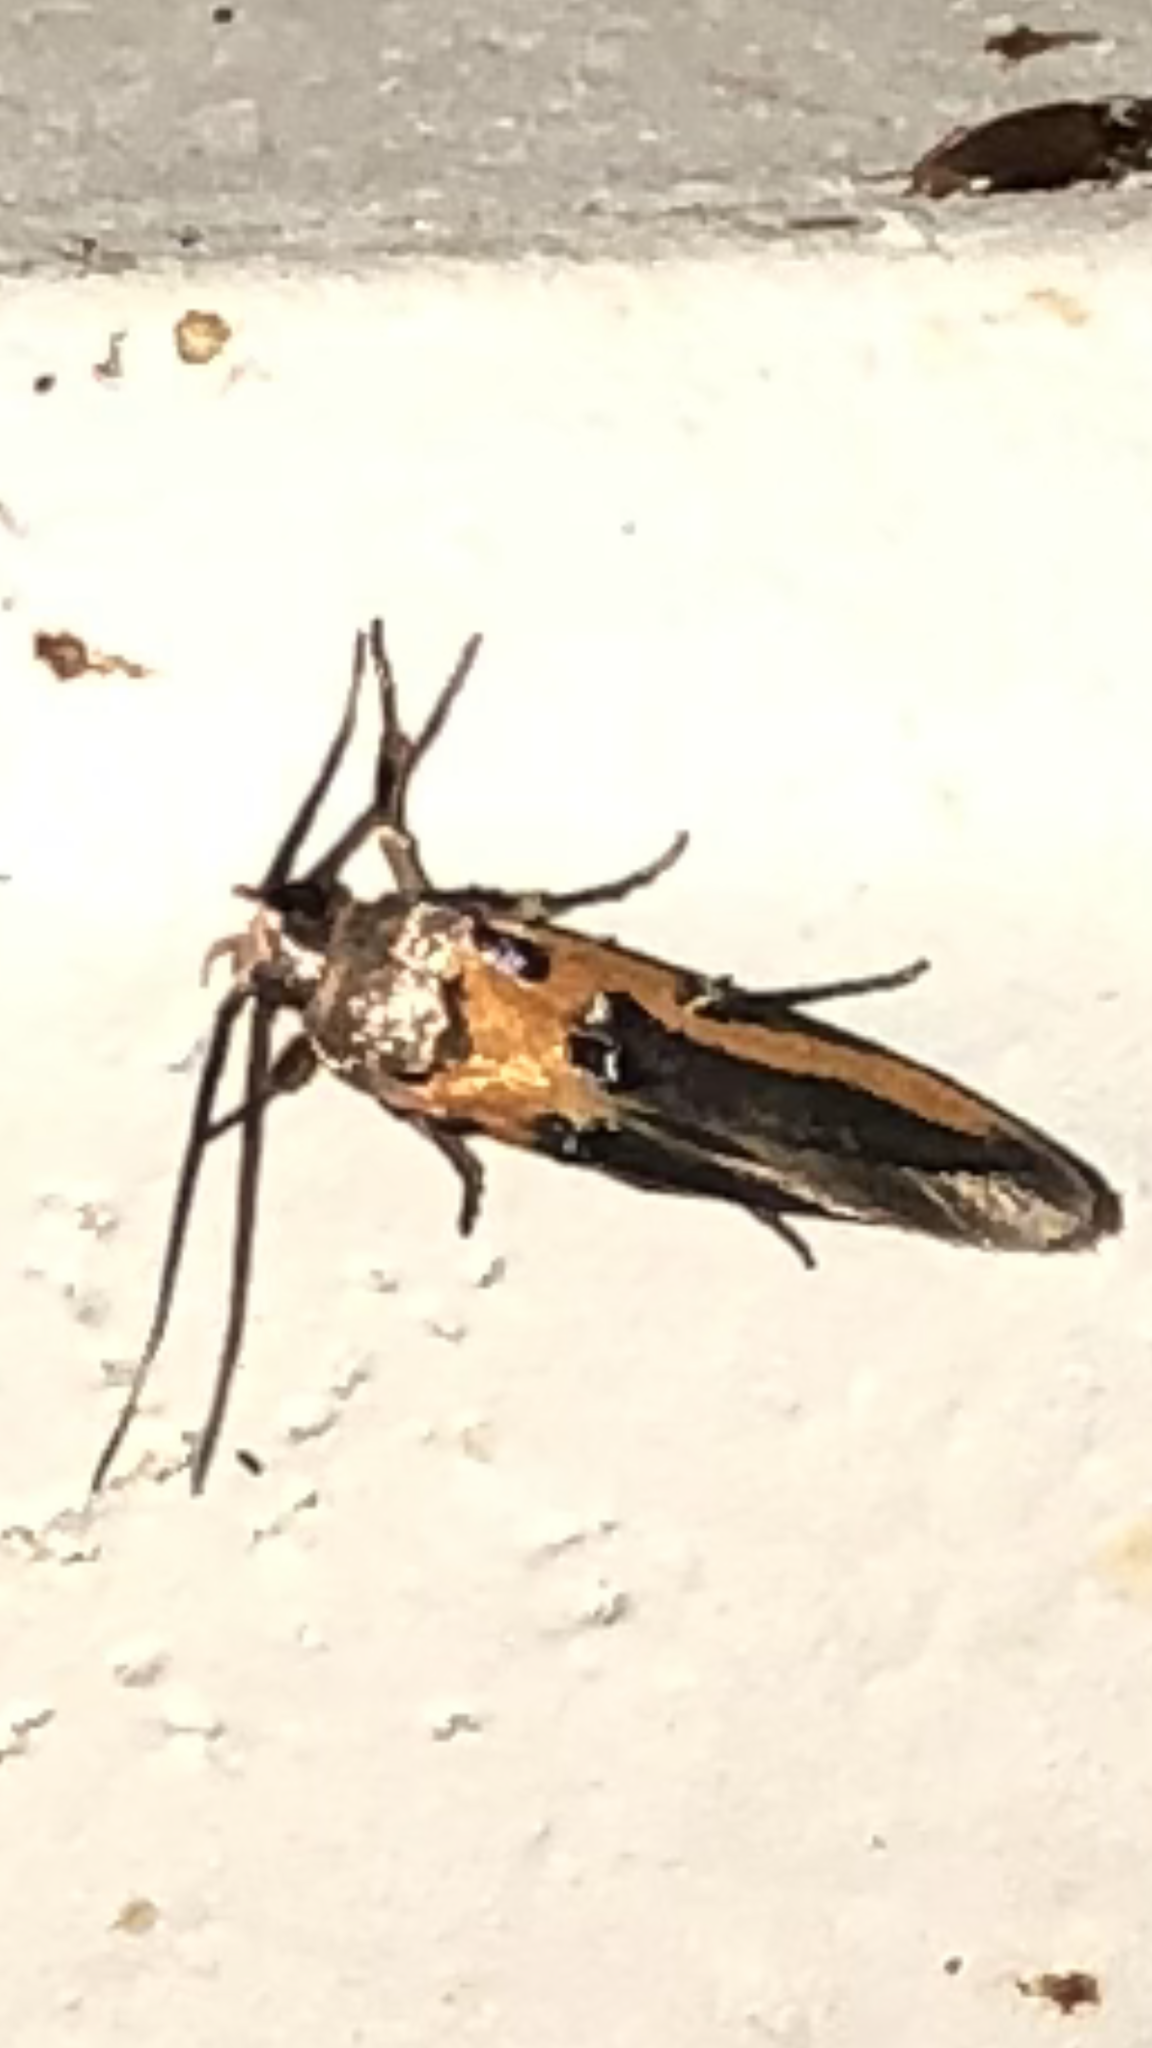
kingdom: Animalia
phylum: Arthropoda
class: Insecta
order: Lepidoptera
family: Cosmopterigidae
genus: Euclemensia
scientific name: Euclemensia bassettella
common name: Kermes scale moth
